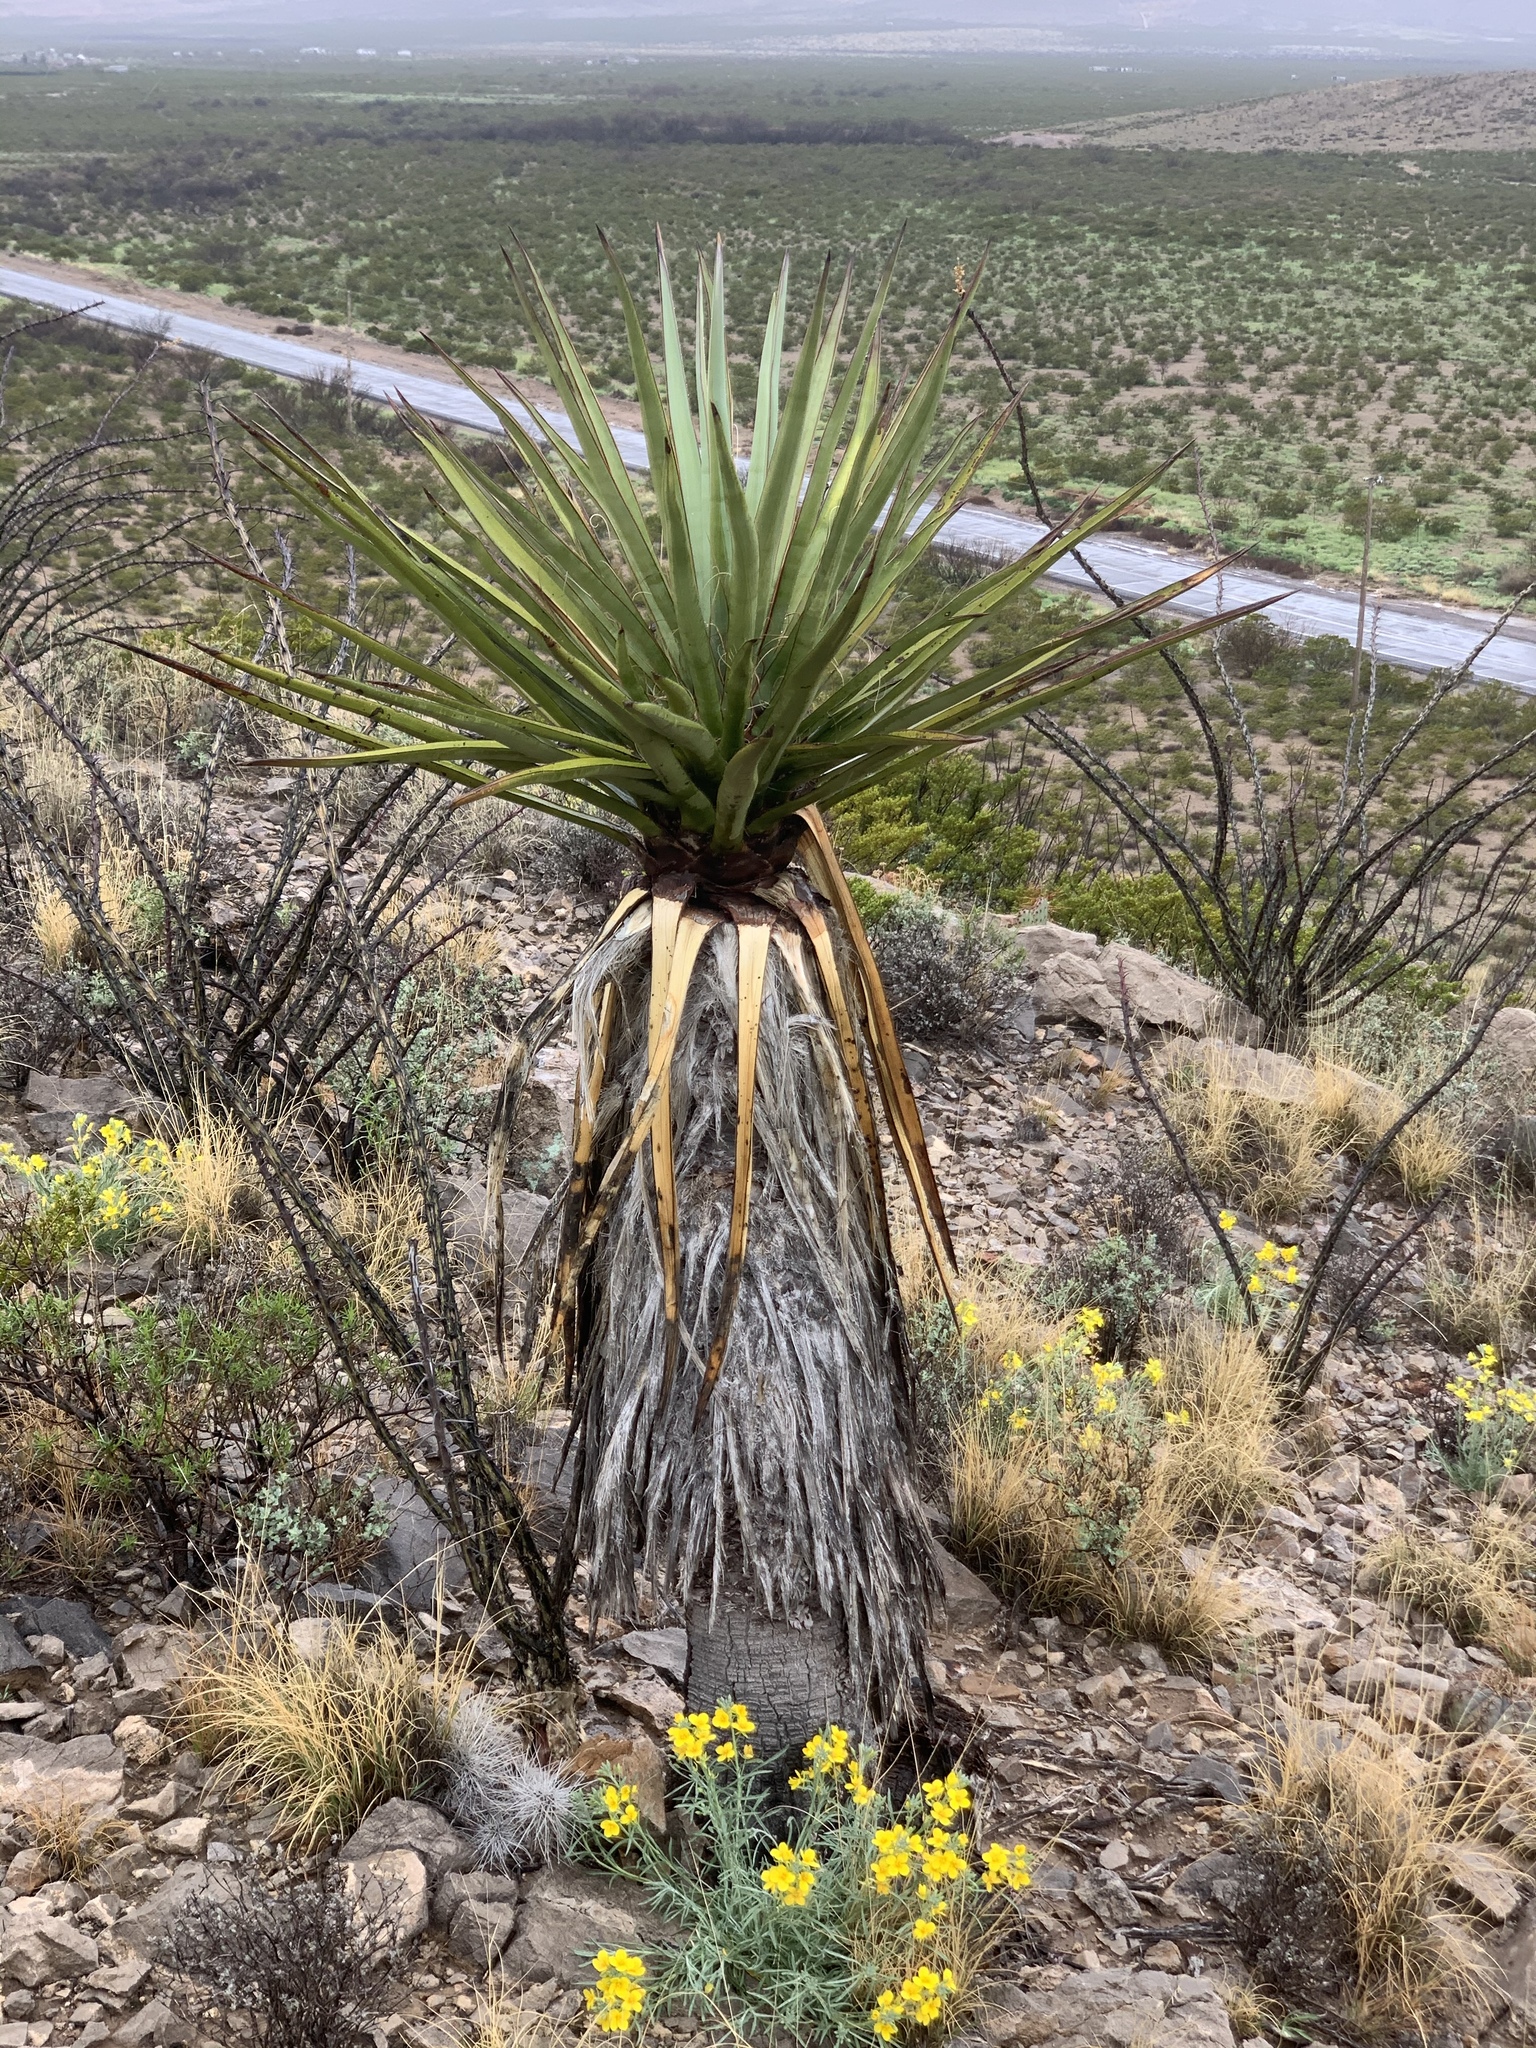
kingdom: Plantae
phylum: Tracheophyta
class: Liliopsida
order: Asparagales
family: Asparagaceae
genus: Yucca
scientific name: Yucca treculiana
